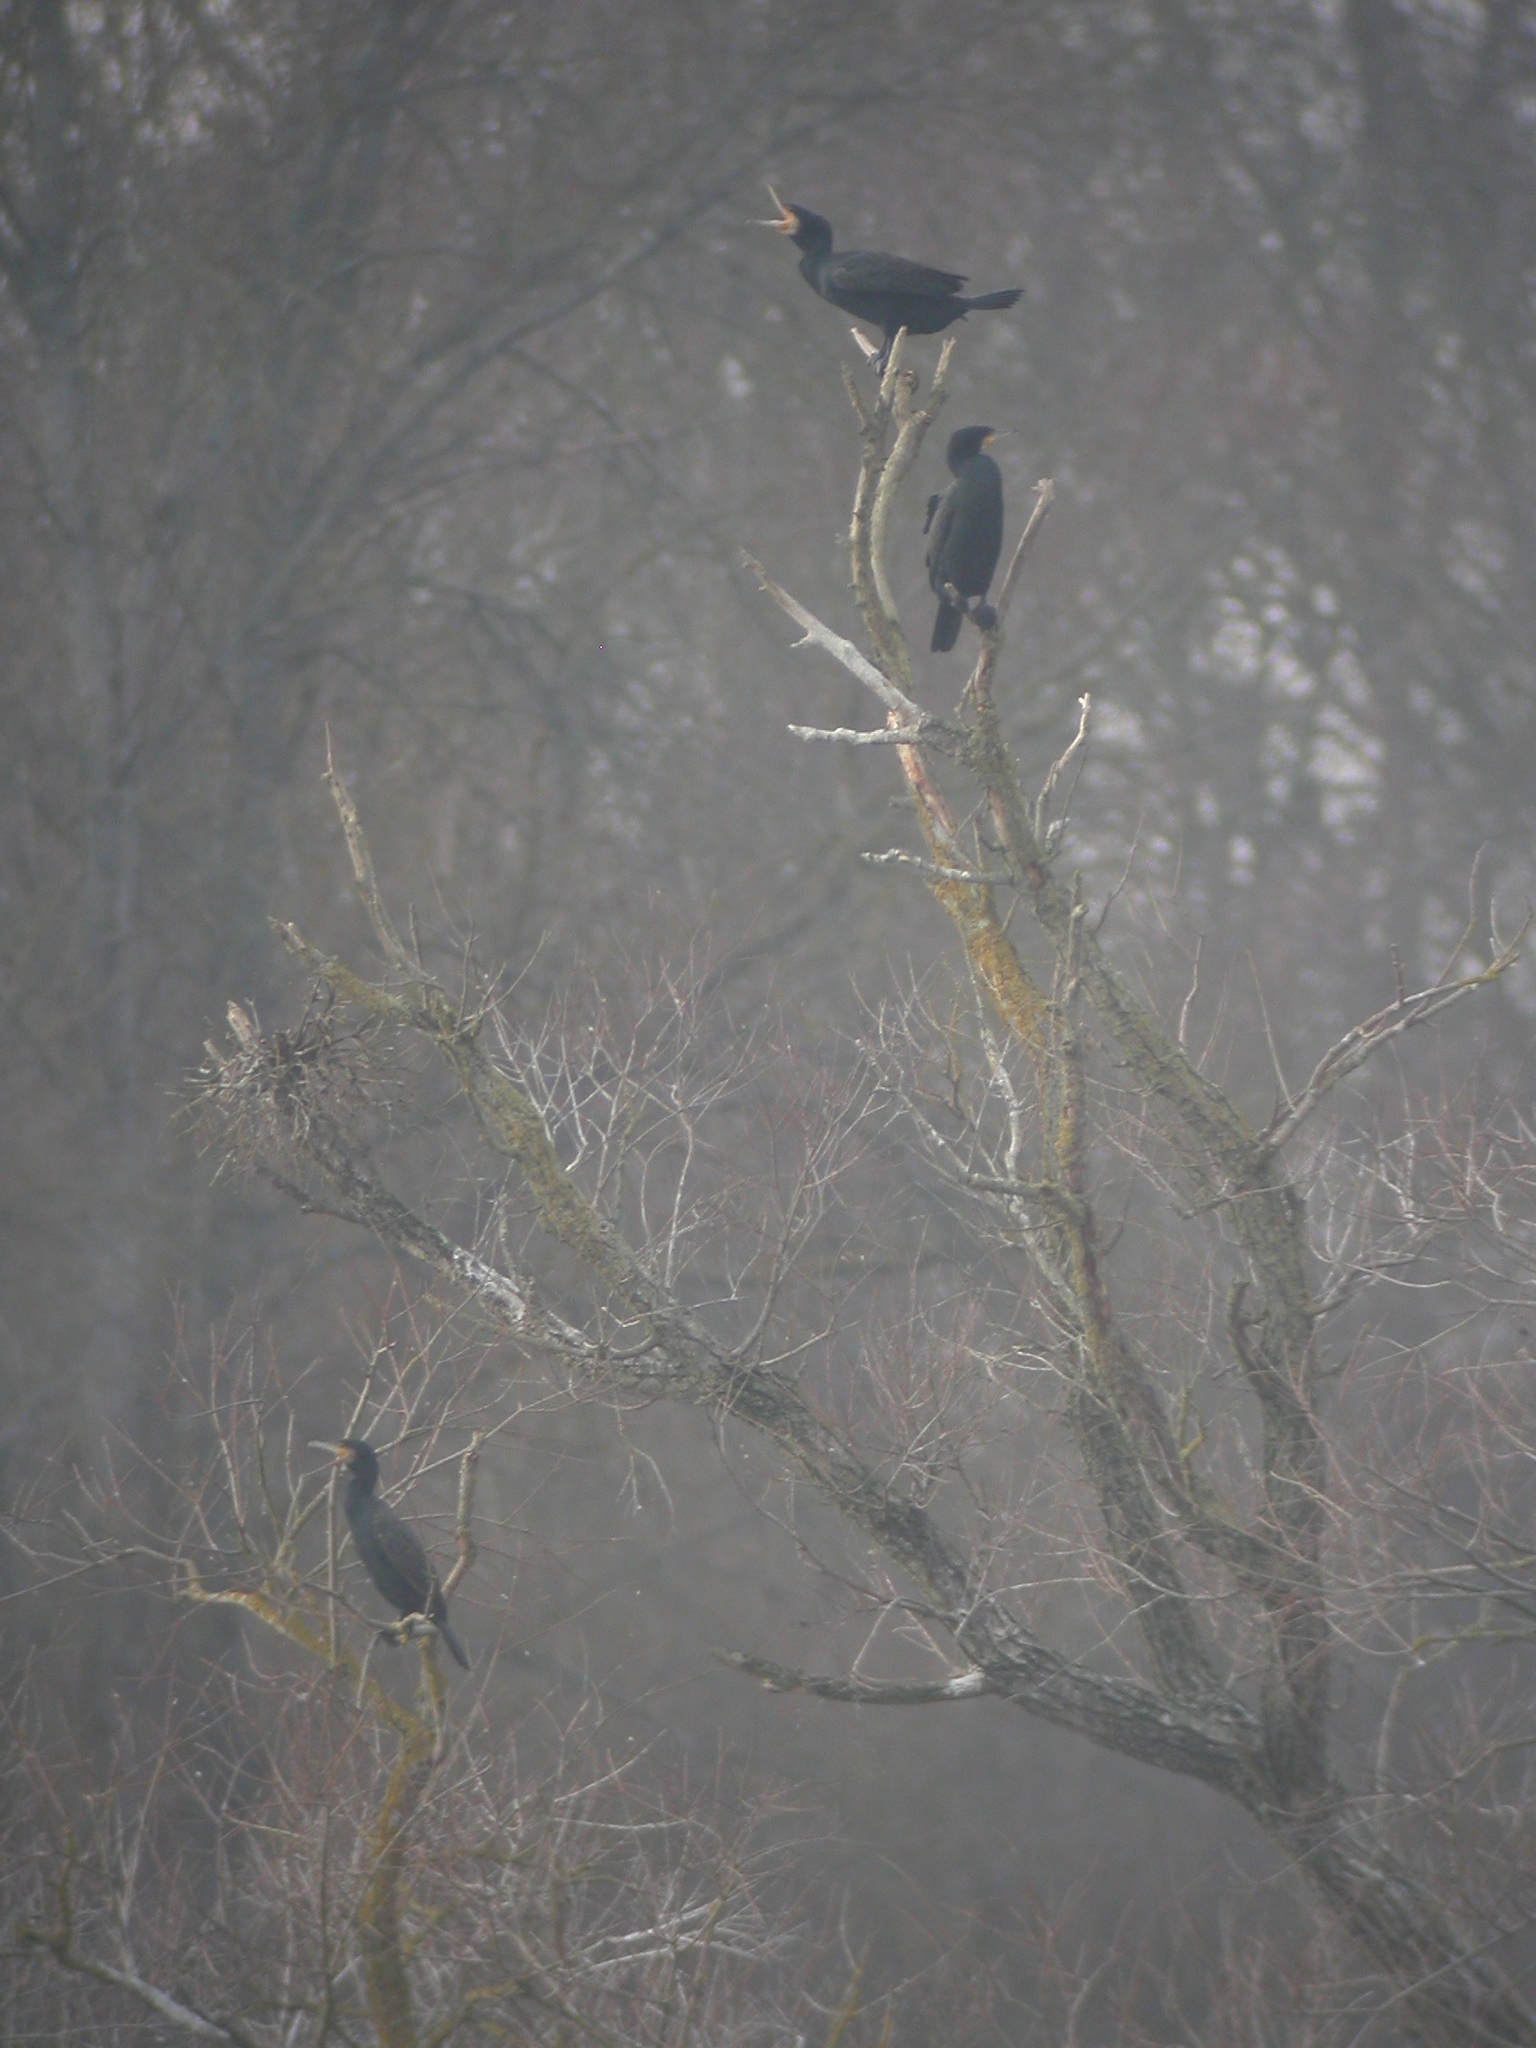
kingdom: Animalia
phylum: Chordata
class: Aves
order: Suliformes
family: Phalacrocoracidae
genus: Phalacrocorax
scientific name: Phalacrocorax carbo
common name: Great cormorant
